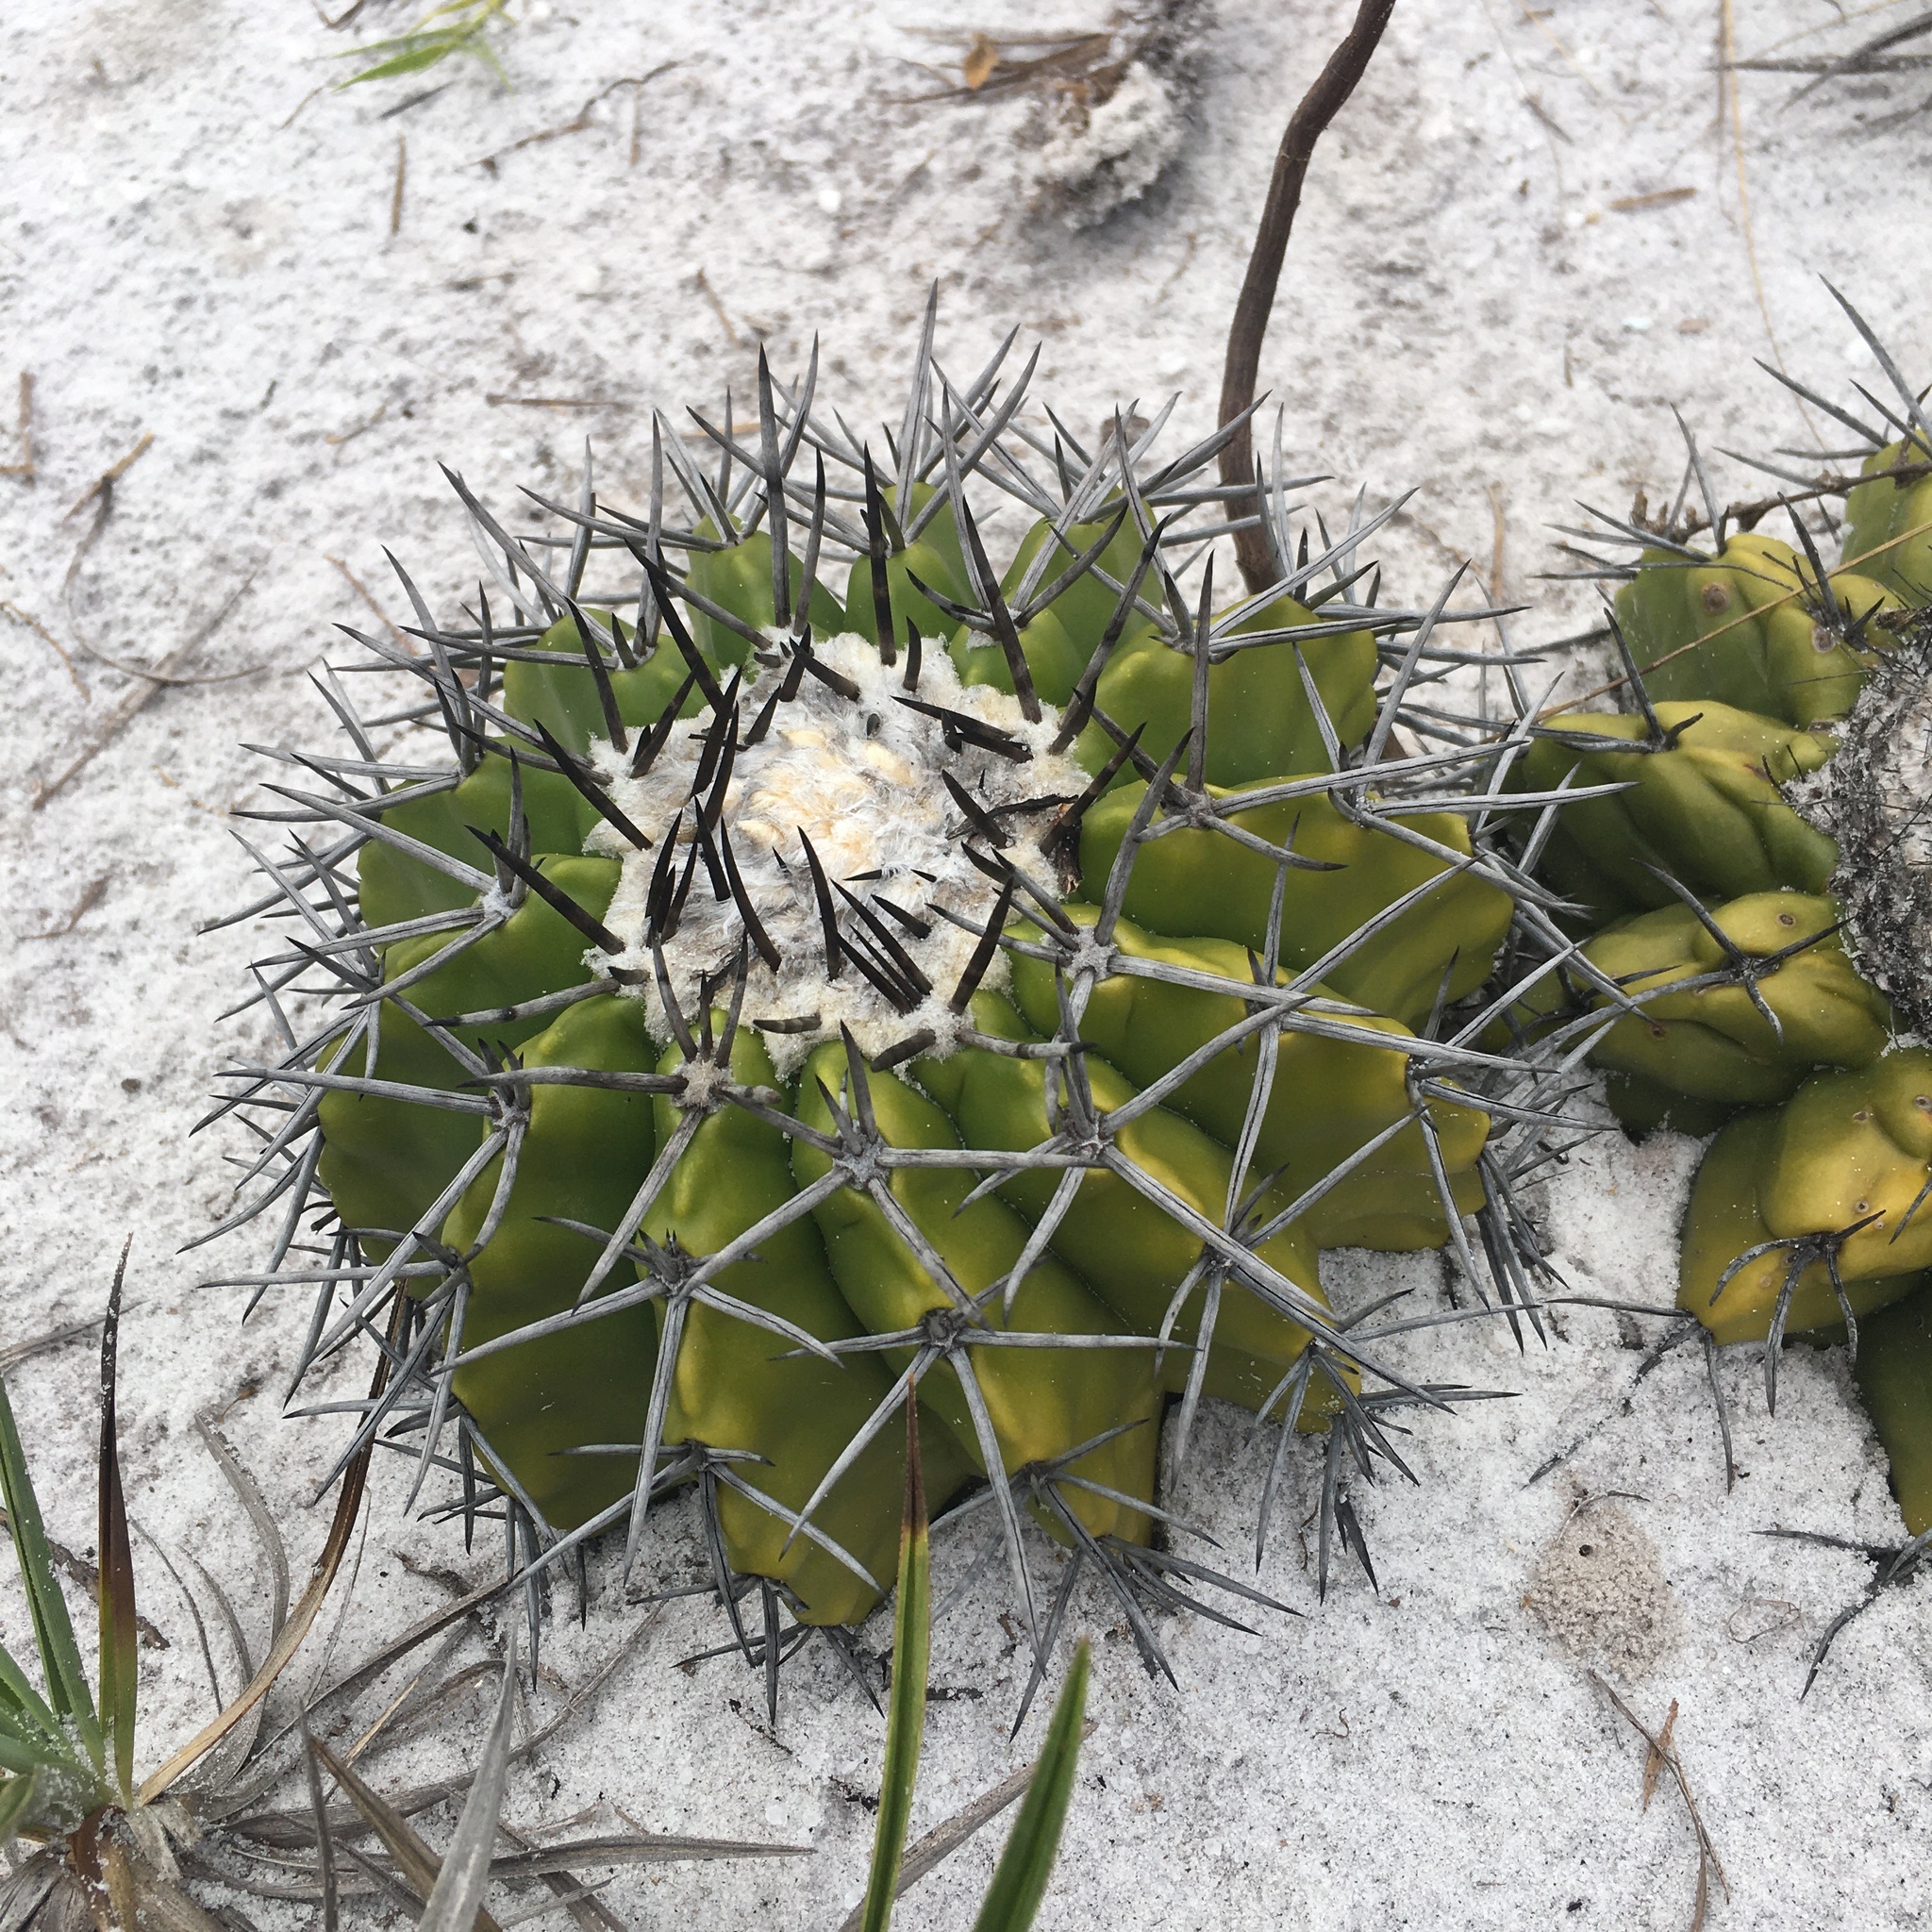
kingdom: Plantae
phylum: Tracheophyta
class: Magnoliopsida
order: Caryophyllales
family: Cactaceae
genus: Discocactus
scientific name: Discocactus pseudoinsignis
